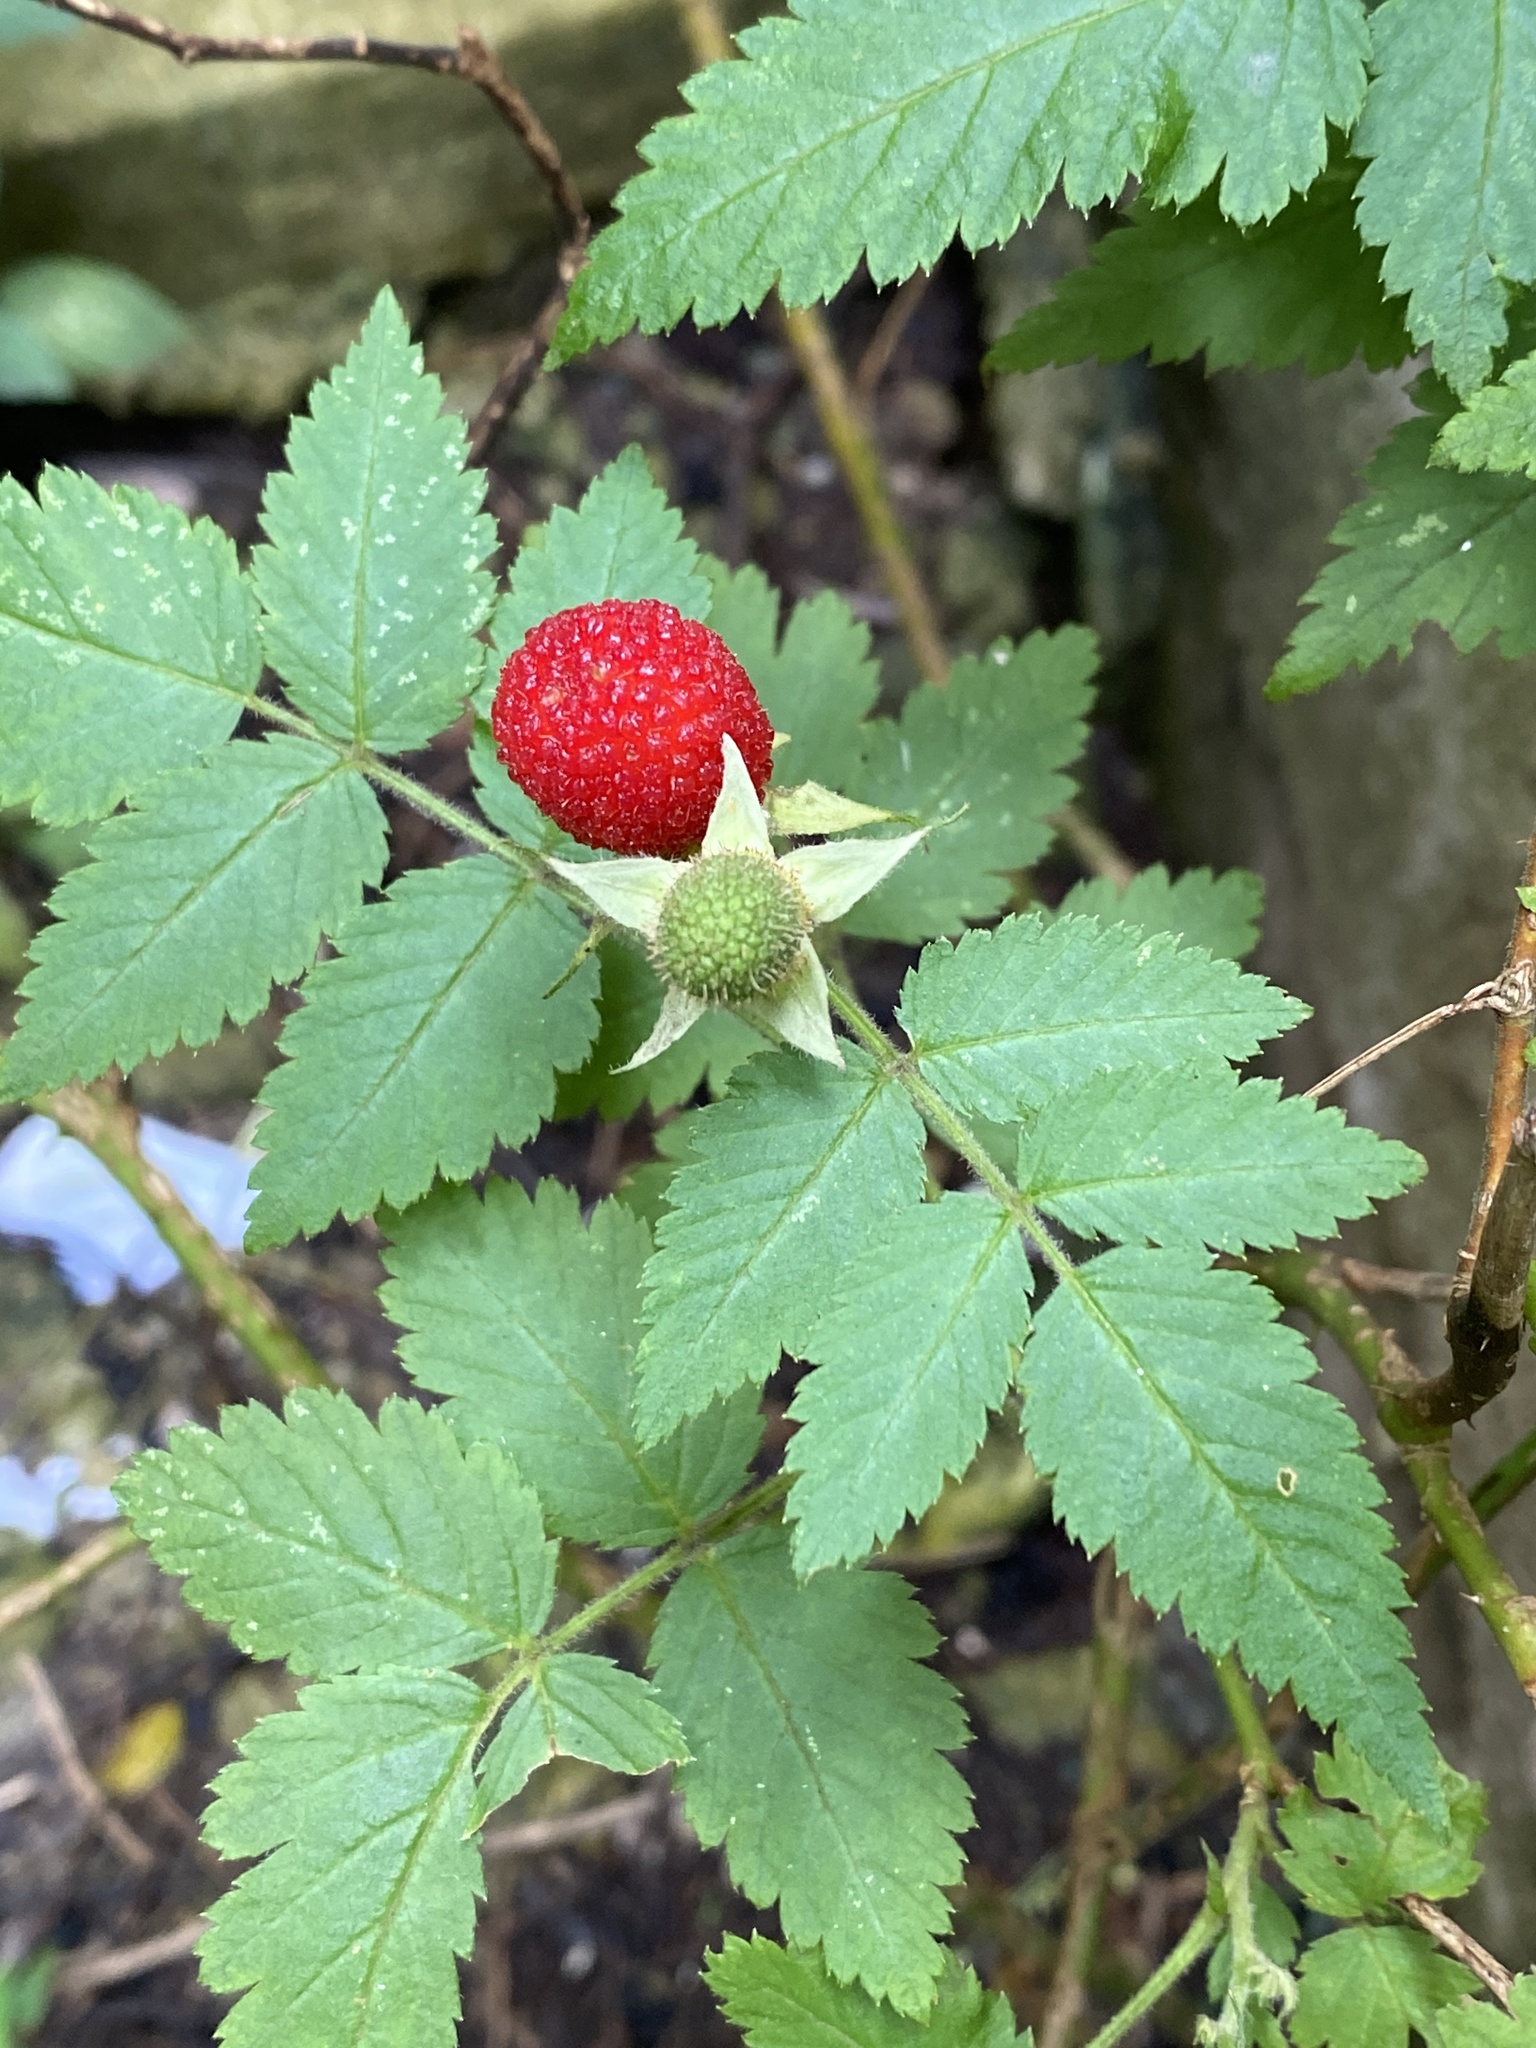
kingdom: Plantae
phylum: Tracheophyta
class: Magnoliopsida
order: Rosales
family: Rosaceae
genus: Rubus
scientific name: Rubus rosifolius
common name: Roseleaf raspberry
